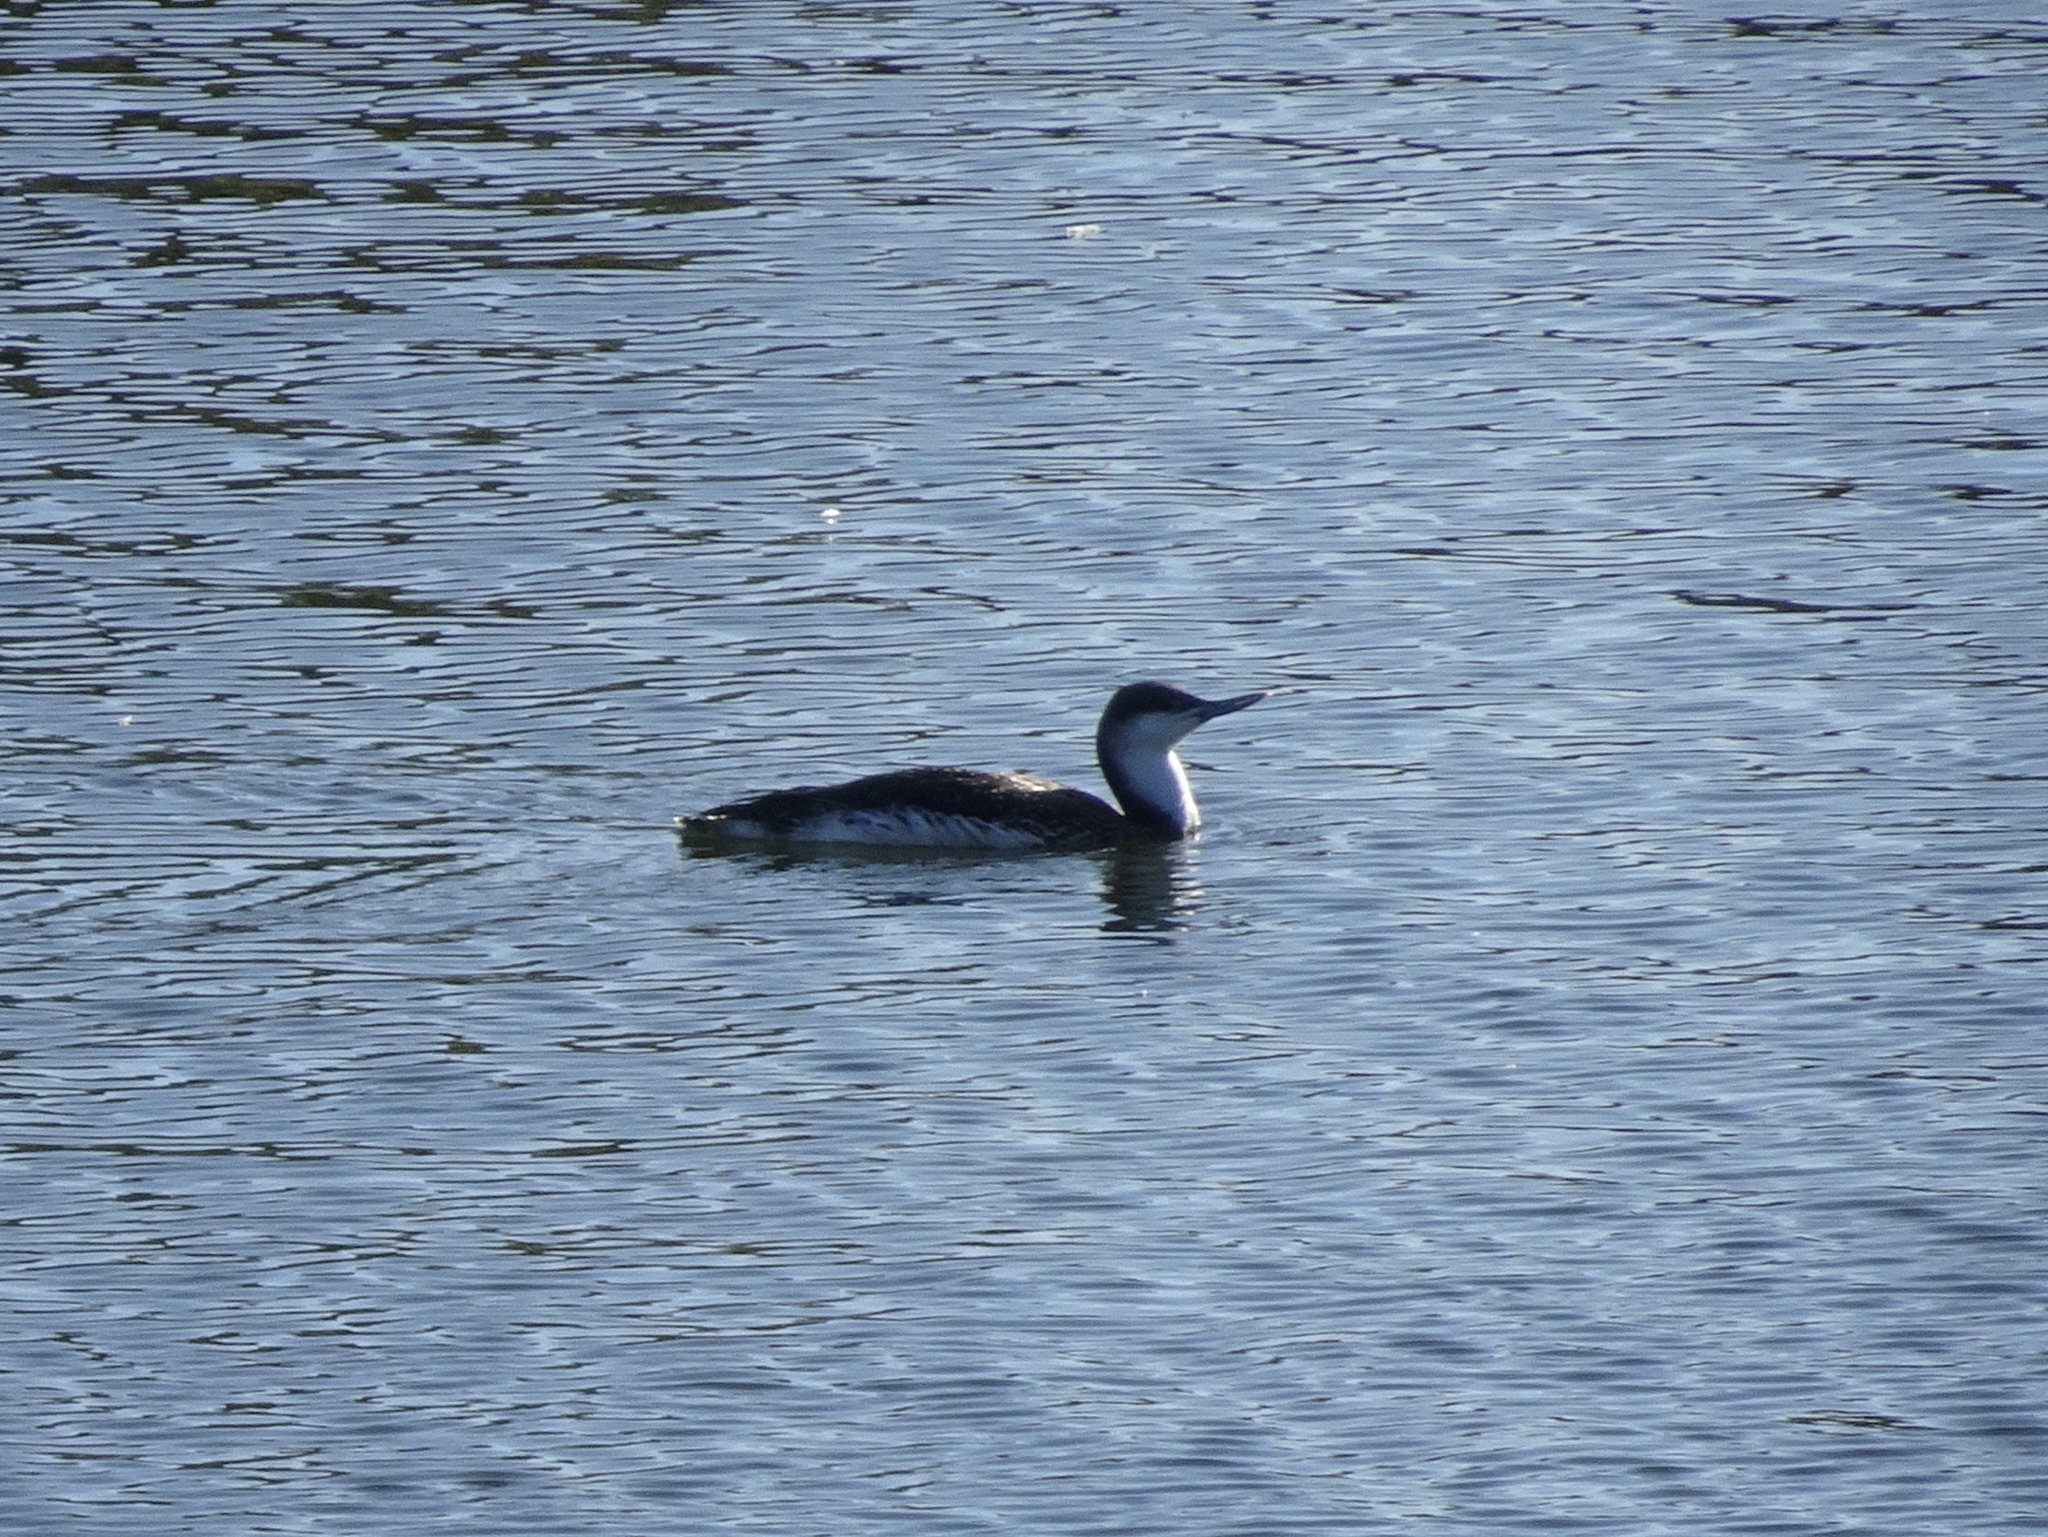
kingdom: Animalia
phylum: Chordata
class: Aves
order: Gaviiformes
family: Gaviidae
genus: Gavia
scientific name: Gavia stellata
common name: Red-throated loon
